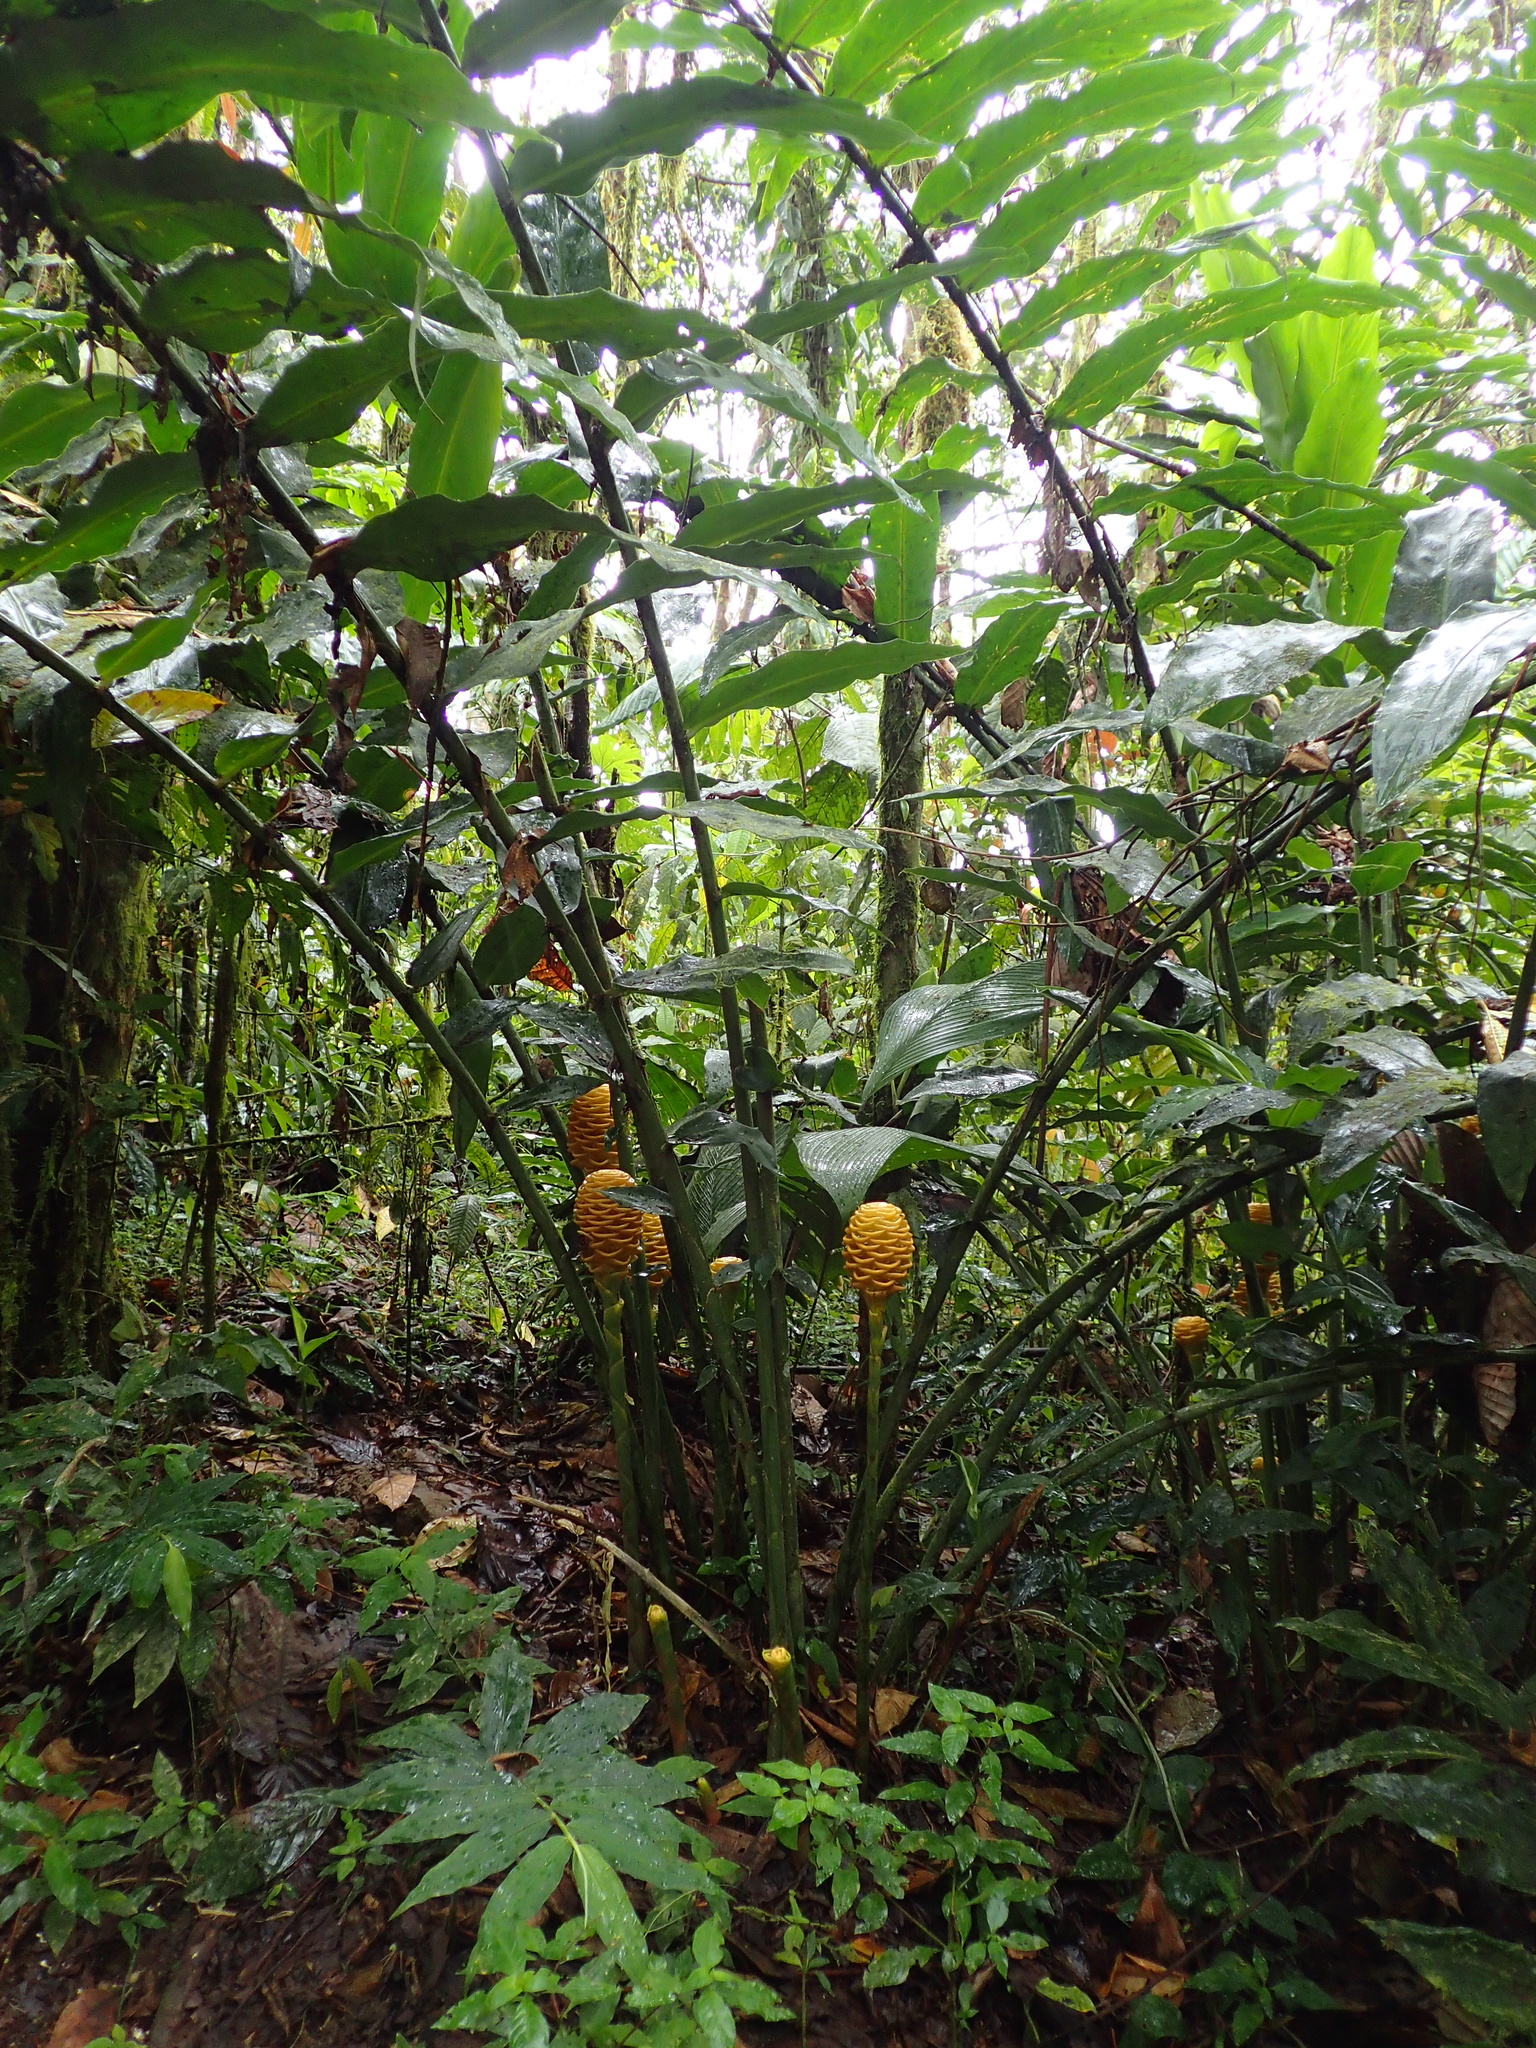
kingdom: Plantae
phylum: Tracheophyta
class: Liliopsida
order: Zingiberales
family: Zingiberaceae
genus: Zingiber
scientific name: Zingiber spectabile
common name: Beehive ginger
